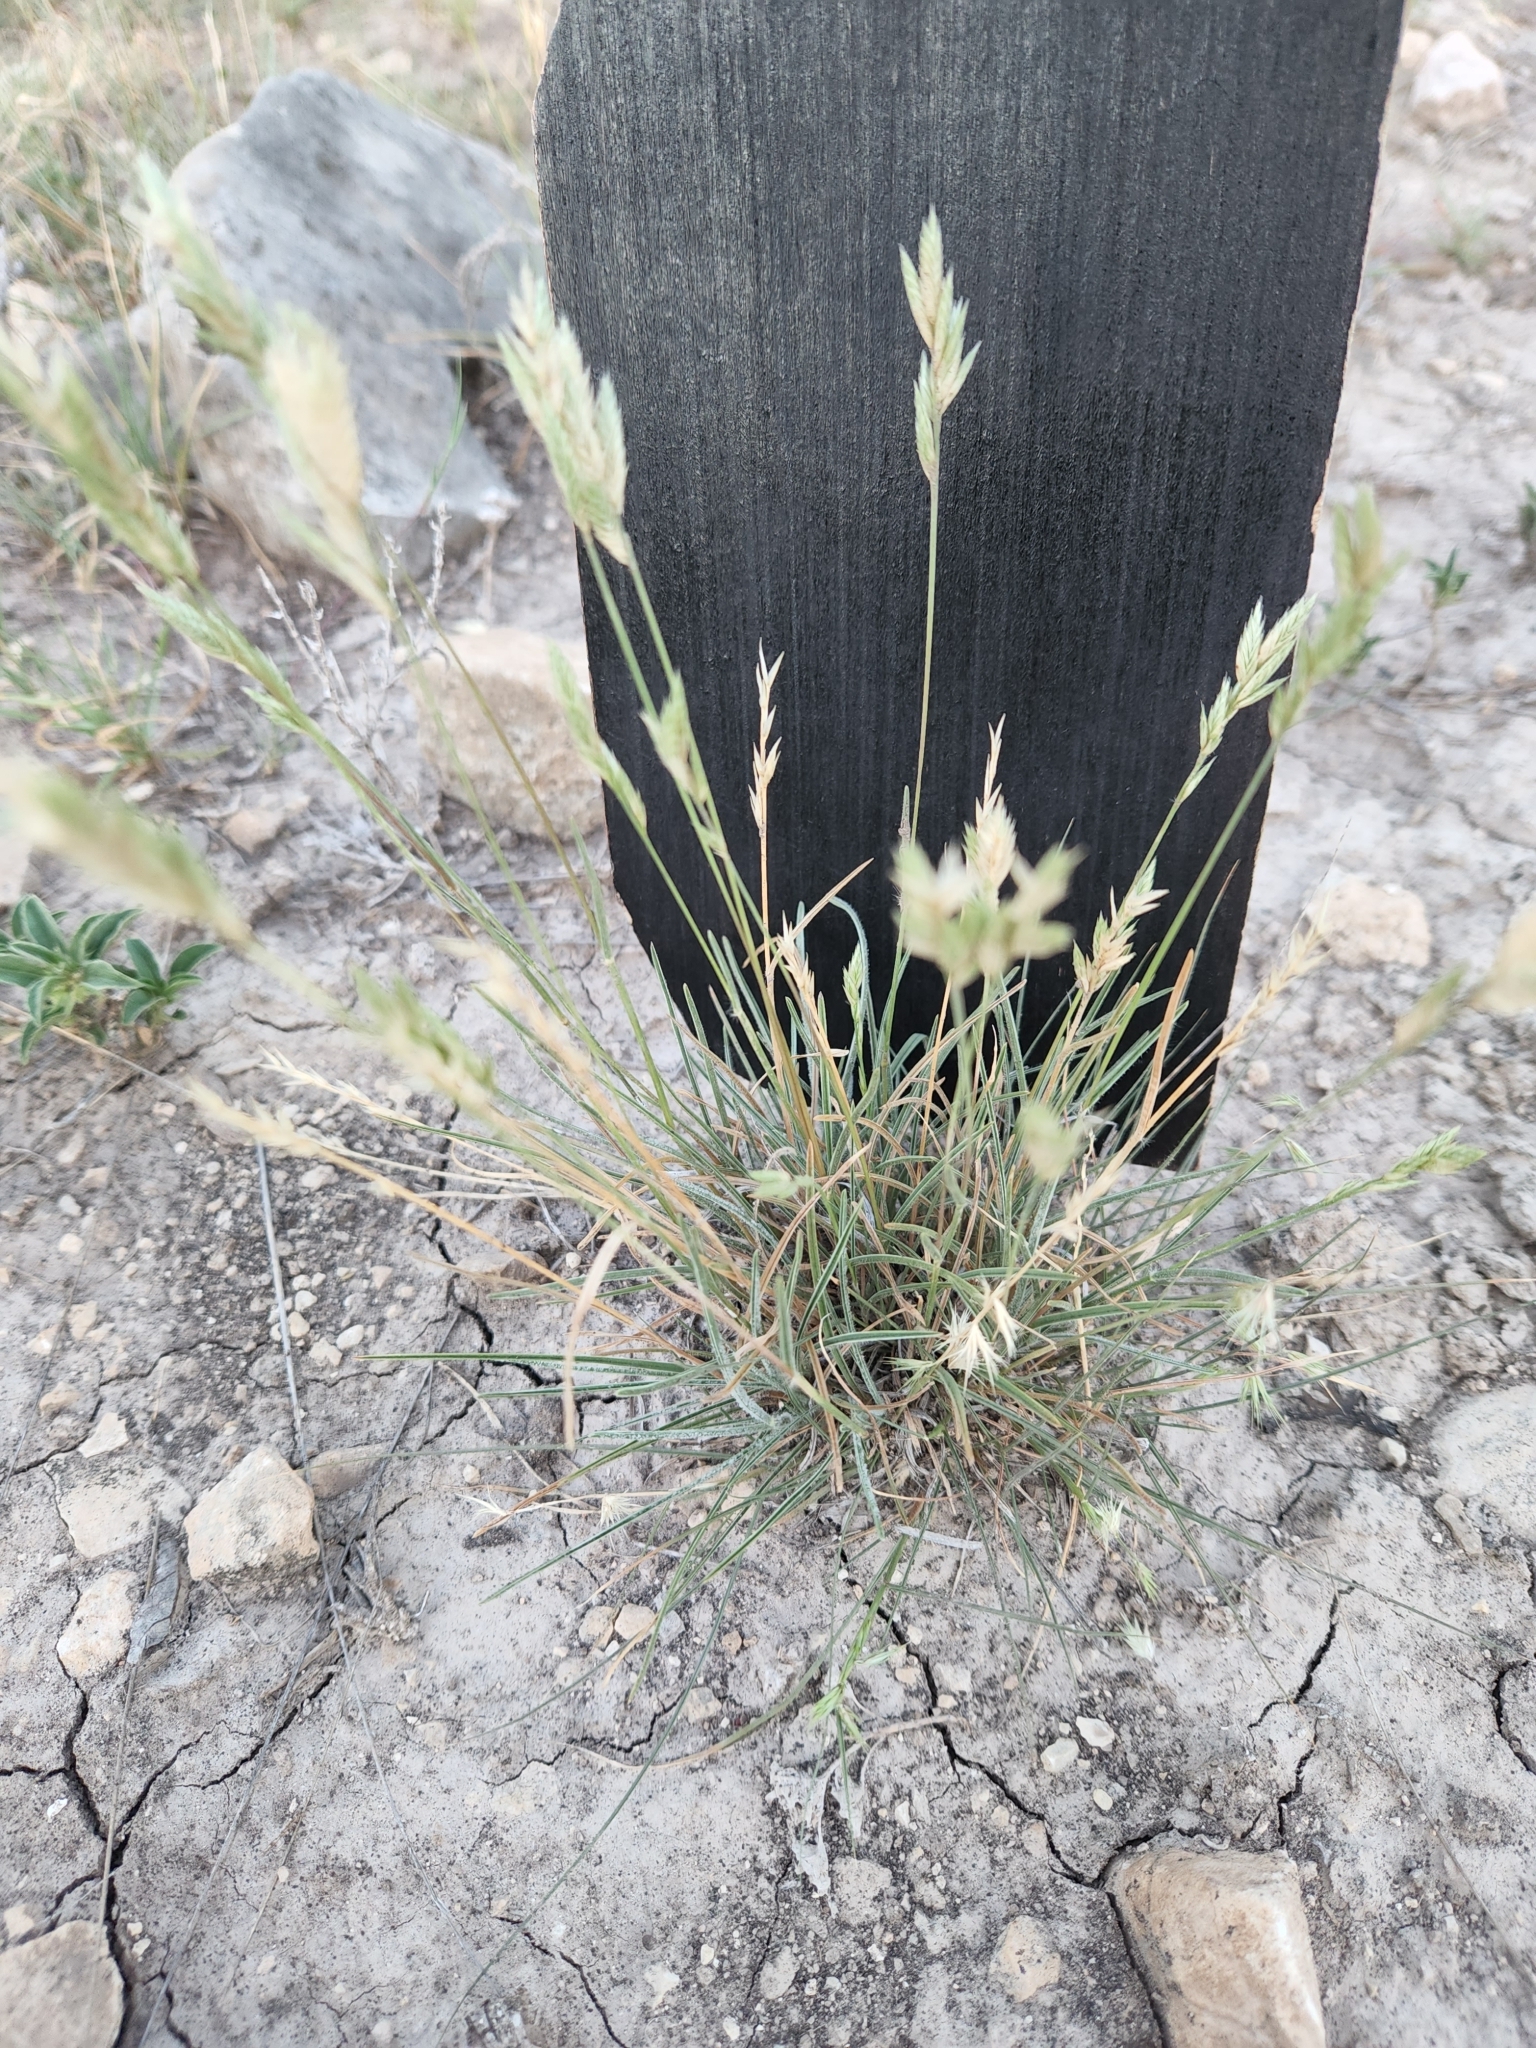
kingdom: Plantae
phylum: Tracheophyta
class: Liliopsida
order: Poales
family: Poaceae
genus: Erioneuron
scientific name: Erioneuron pilosum
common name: Hairy woolly grass
